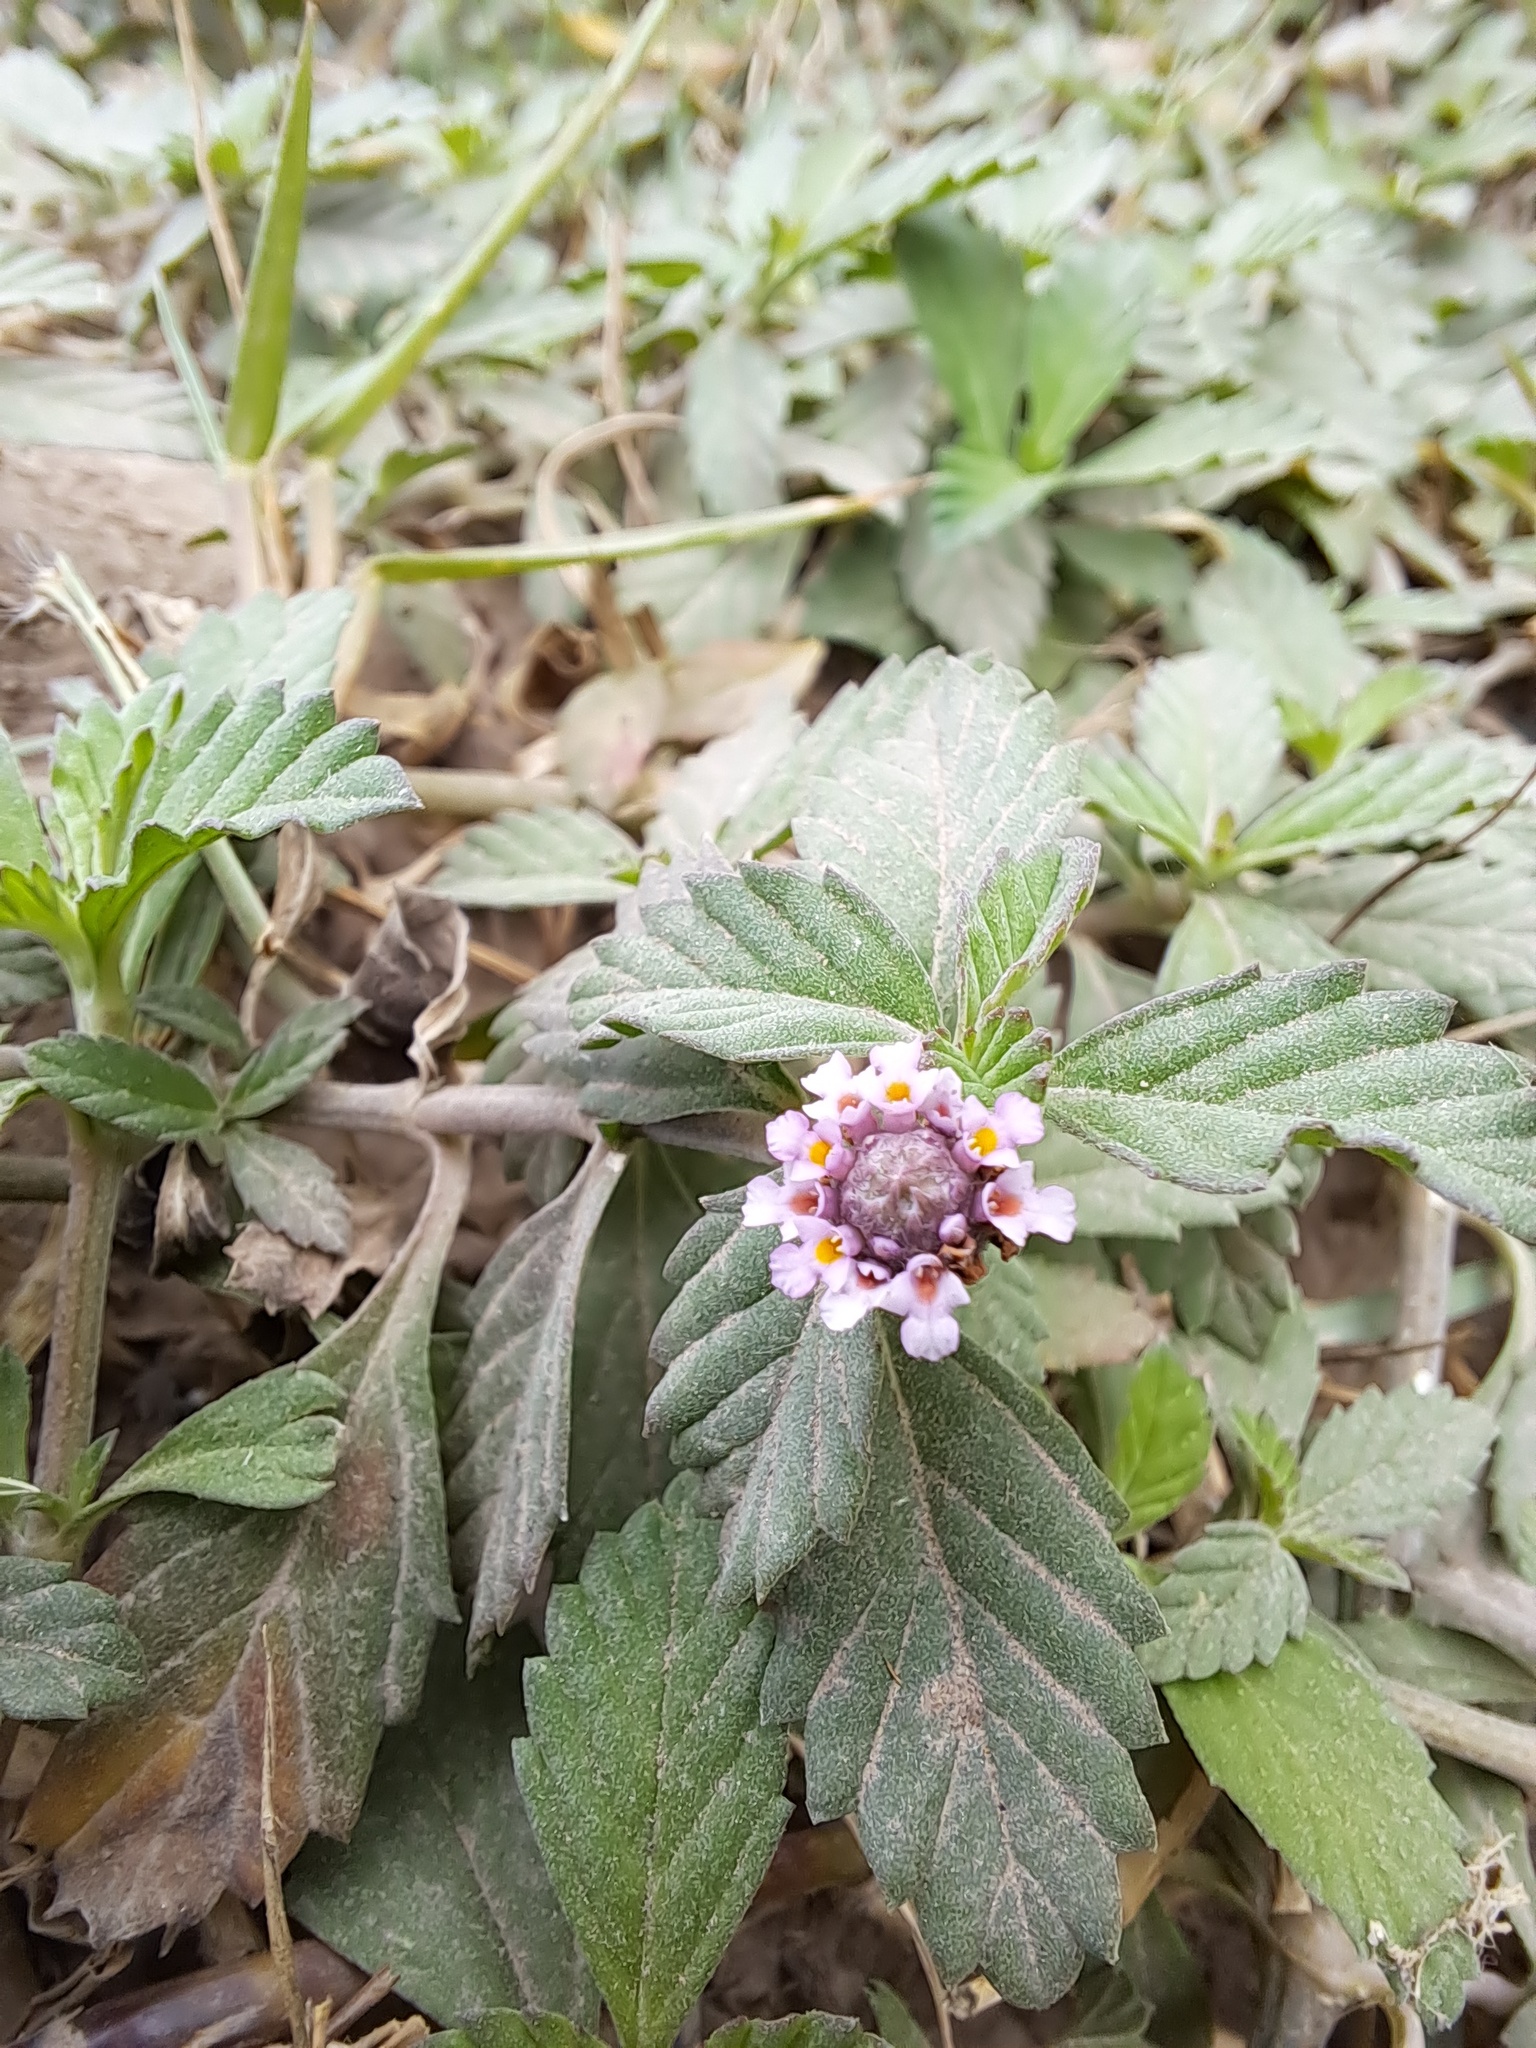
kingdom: Plantae
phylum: Tracheophyta
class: Magnoliopsida
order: Lamiales
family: Verbenaceae
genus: Phyla
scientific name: Phyla nodiflora
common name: Frogfruit
